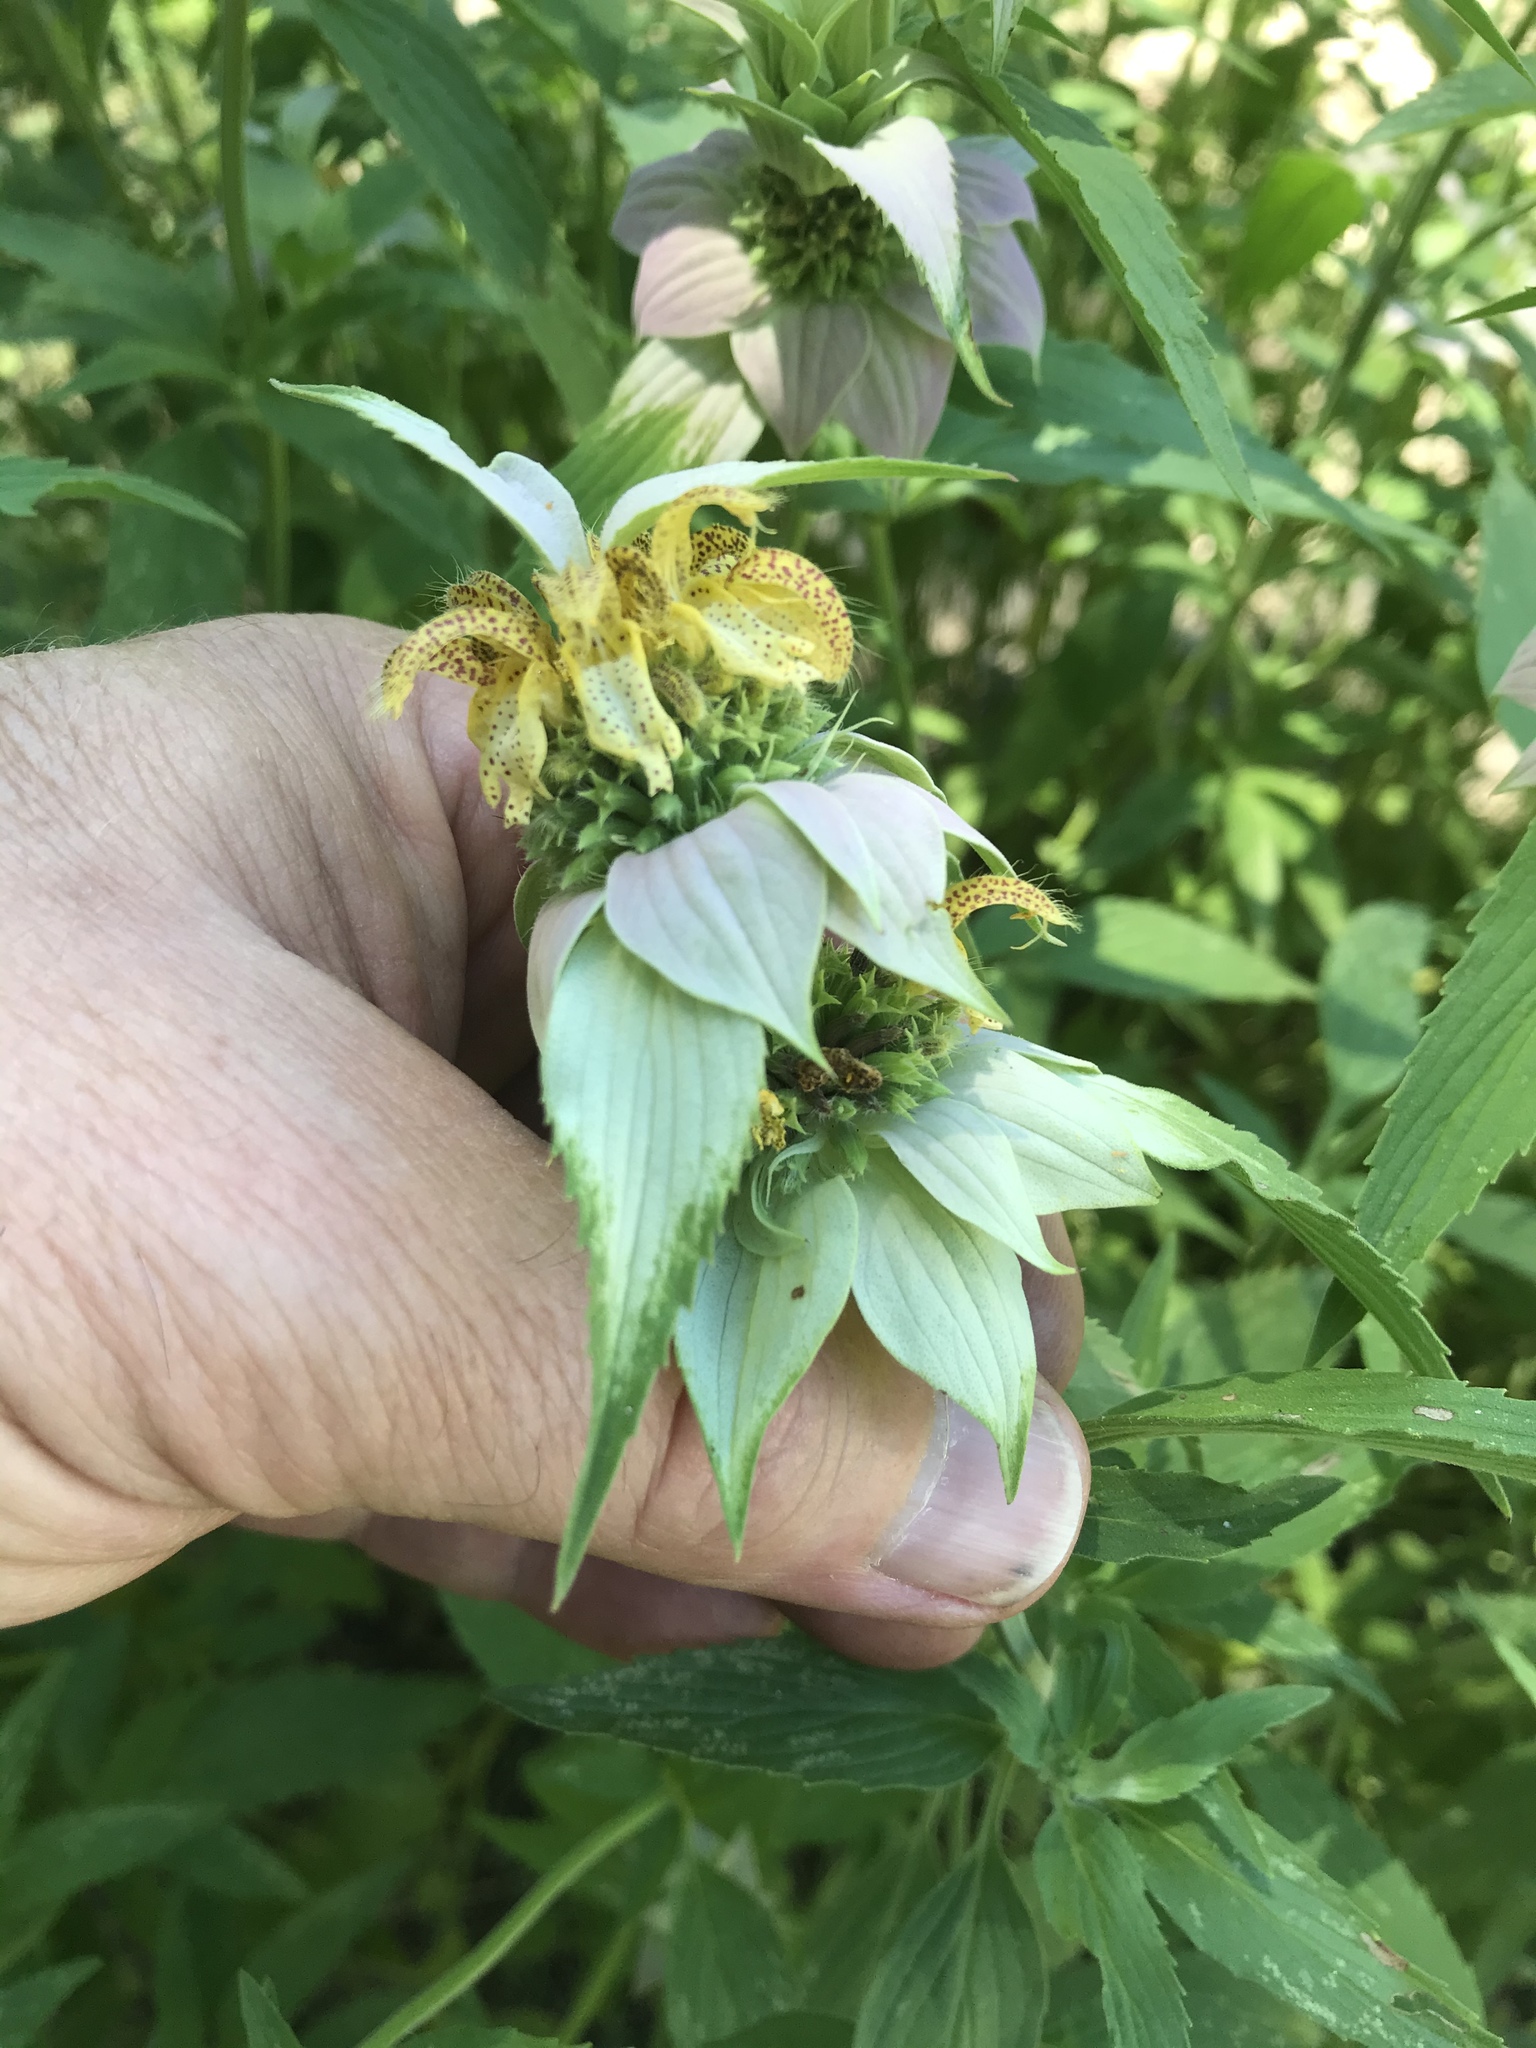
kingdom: Plantae
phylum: Tracheophyta
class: Magnoliopsida
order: Lamiales
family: Lamiaceae
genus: Monarda
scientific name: Monarda punctata
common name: Dotted monarda
